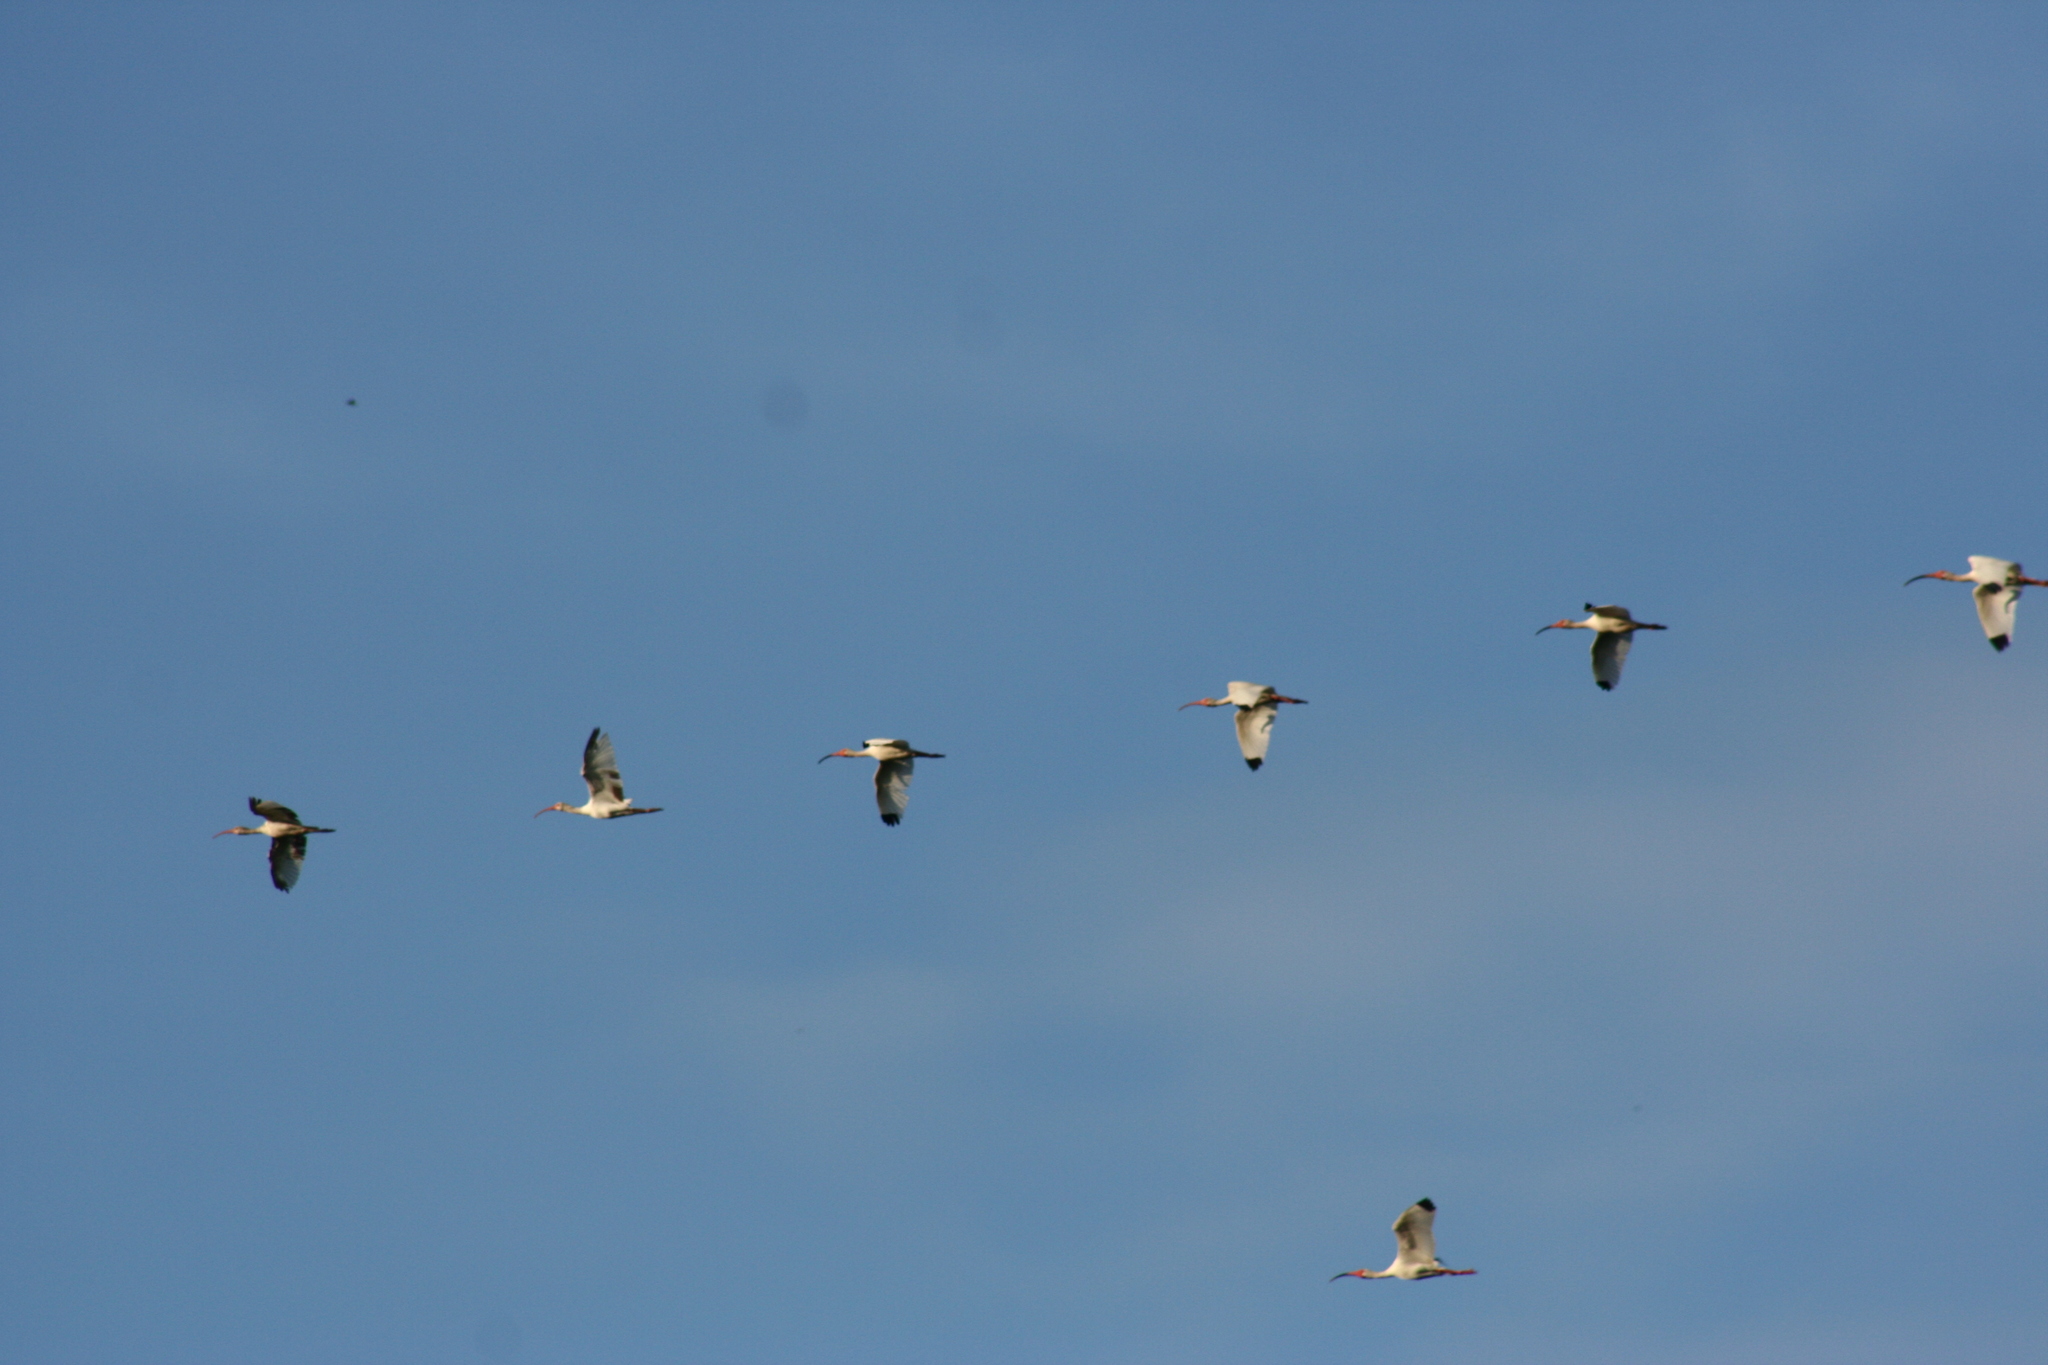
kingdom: Animalia
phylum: Chordata
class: Aves
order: Pelecaniformes
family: Threskiornithidae
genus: Eudocimus
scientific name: Eudocimus albus
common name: White ibis
